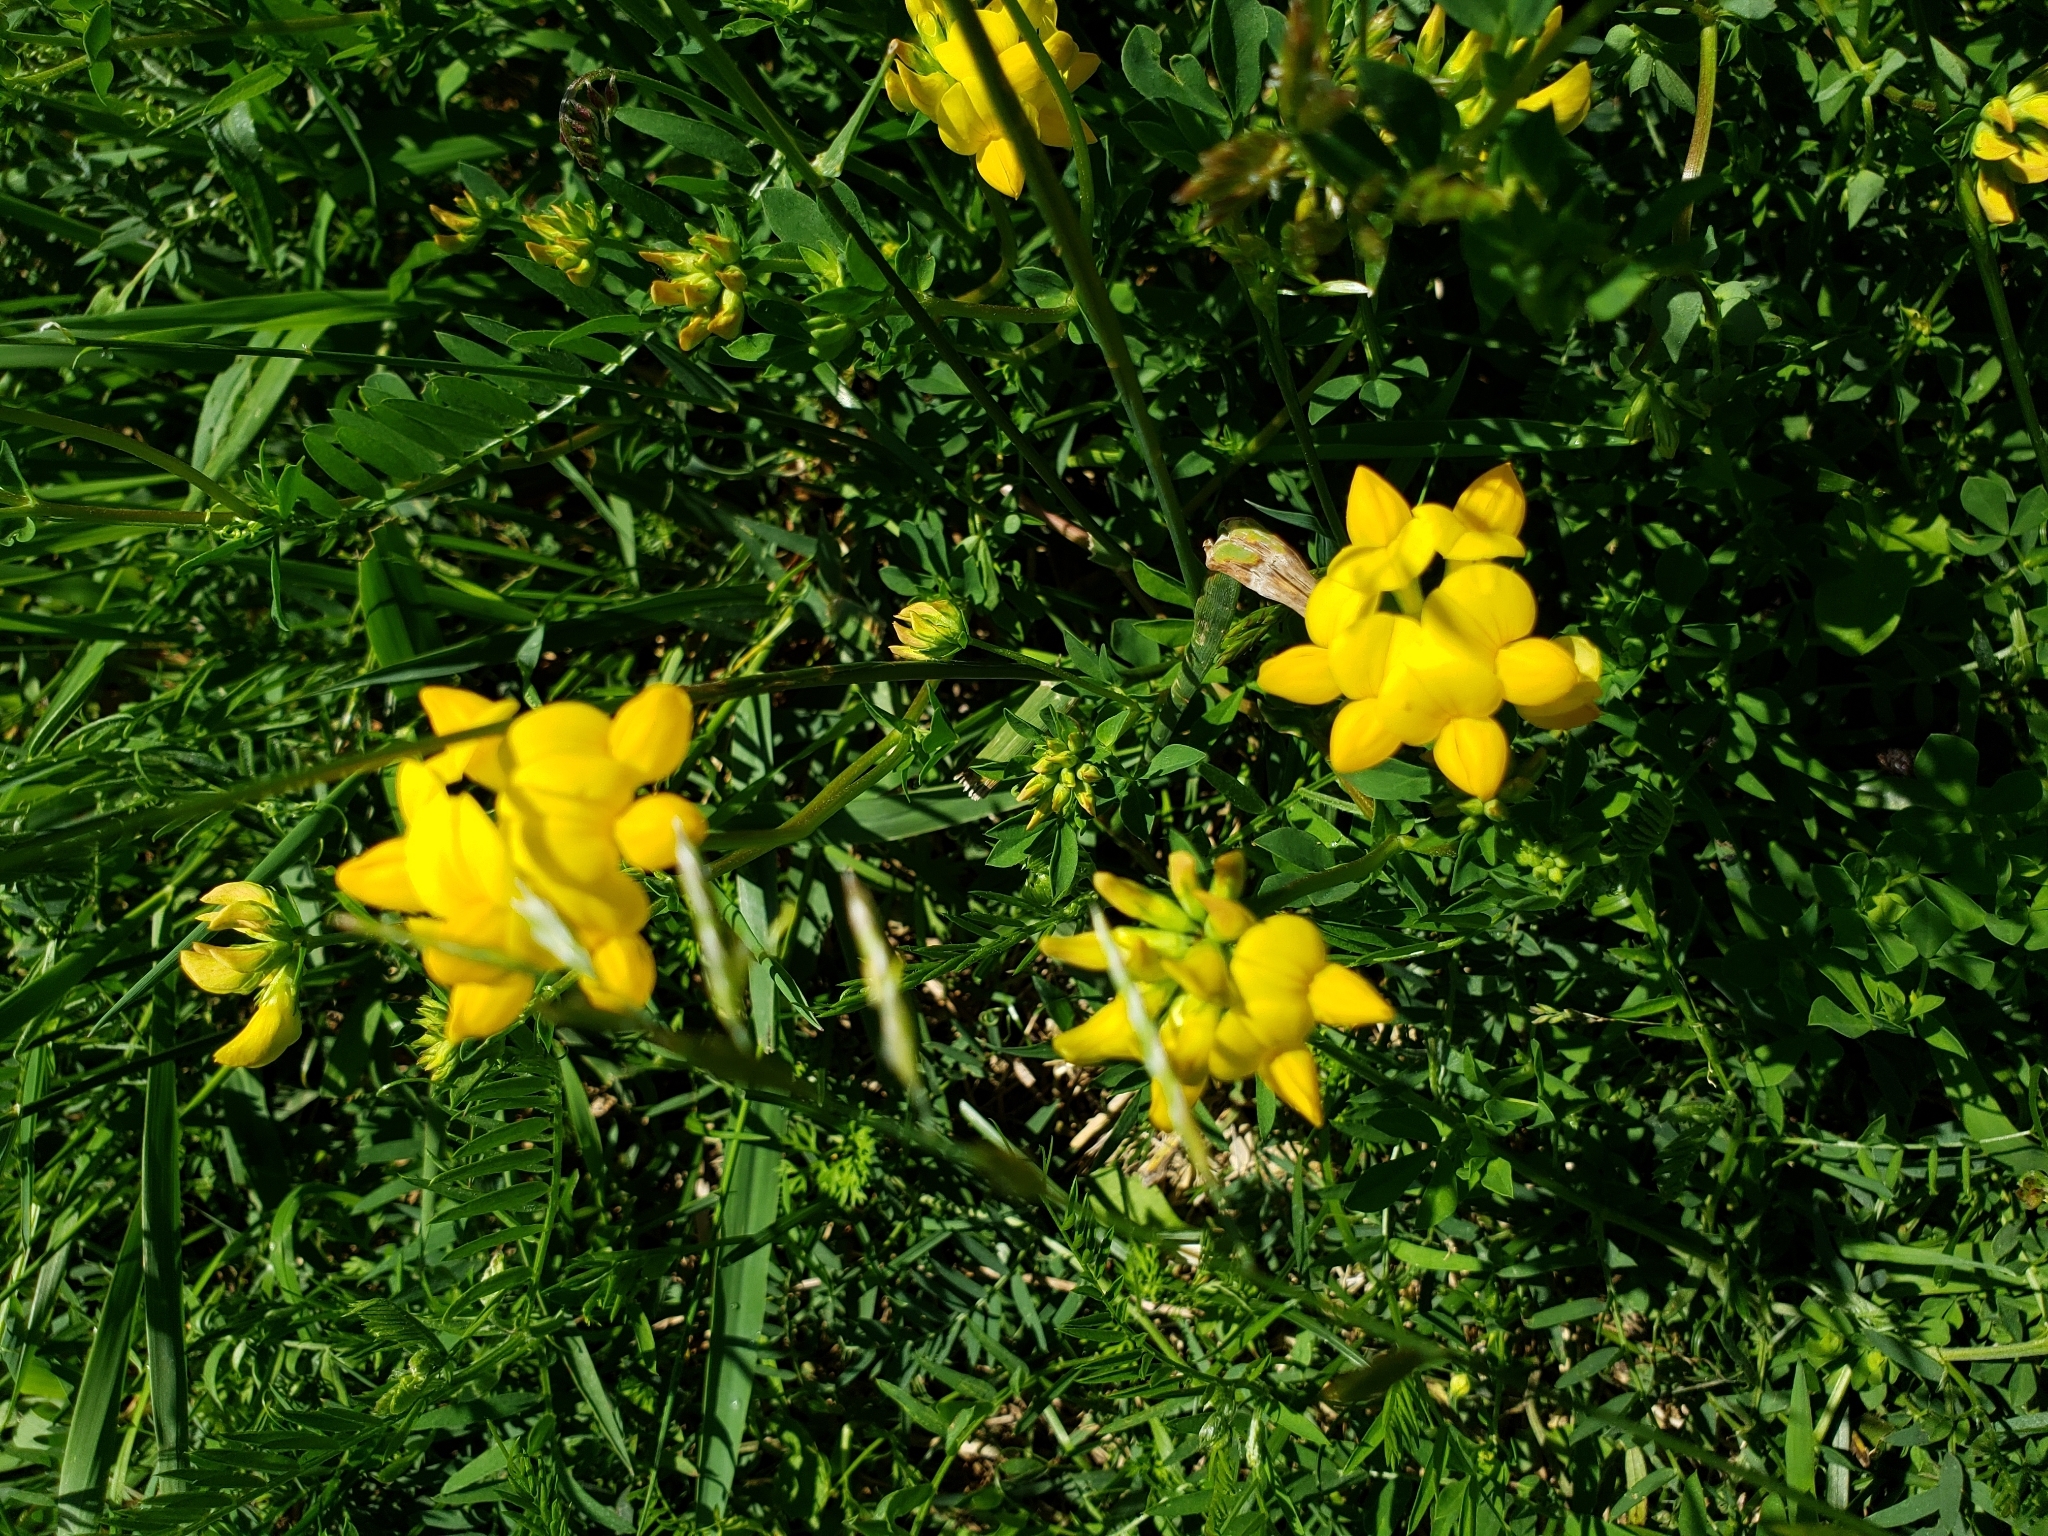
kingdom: Plantae
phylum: Tracheophyta
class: Magnoliopsida
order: Fabales
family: Fabaceae
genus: Lotus
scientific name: Lotus corniculatus
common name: Common bird's-foot-trefoil
